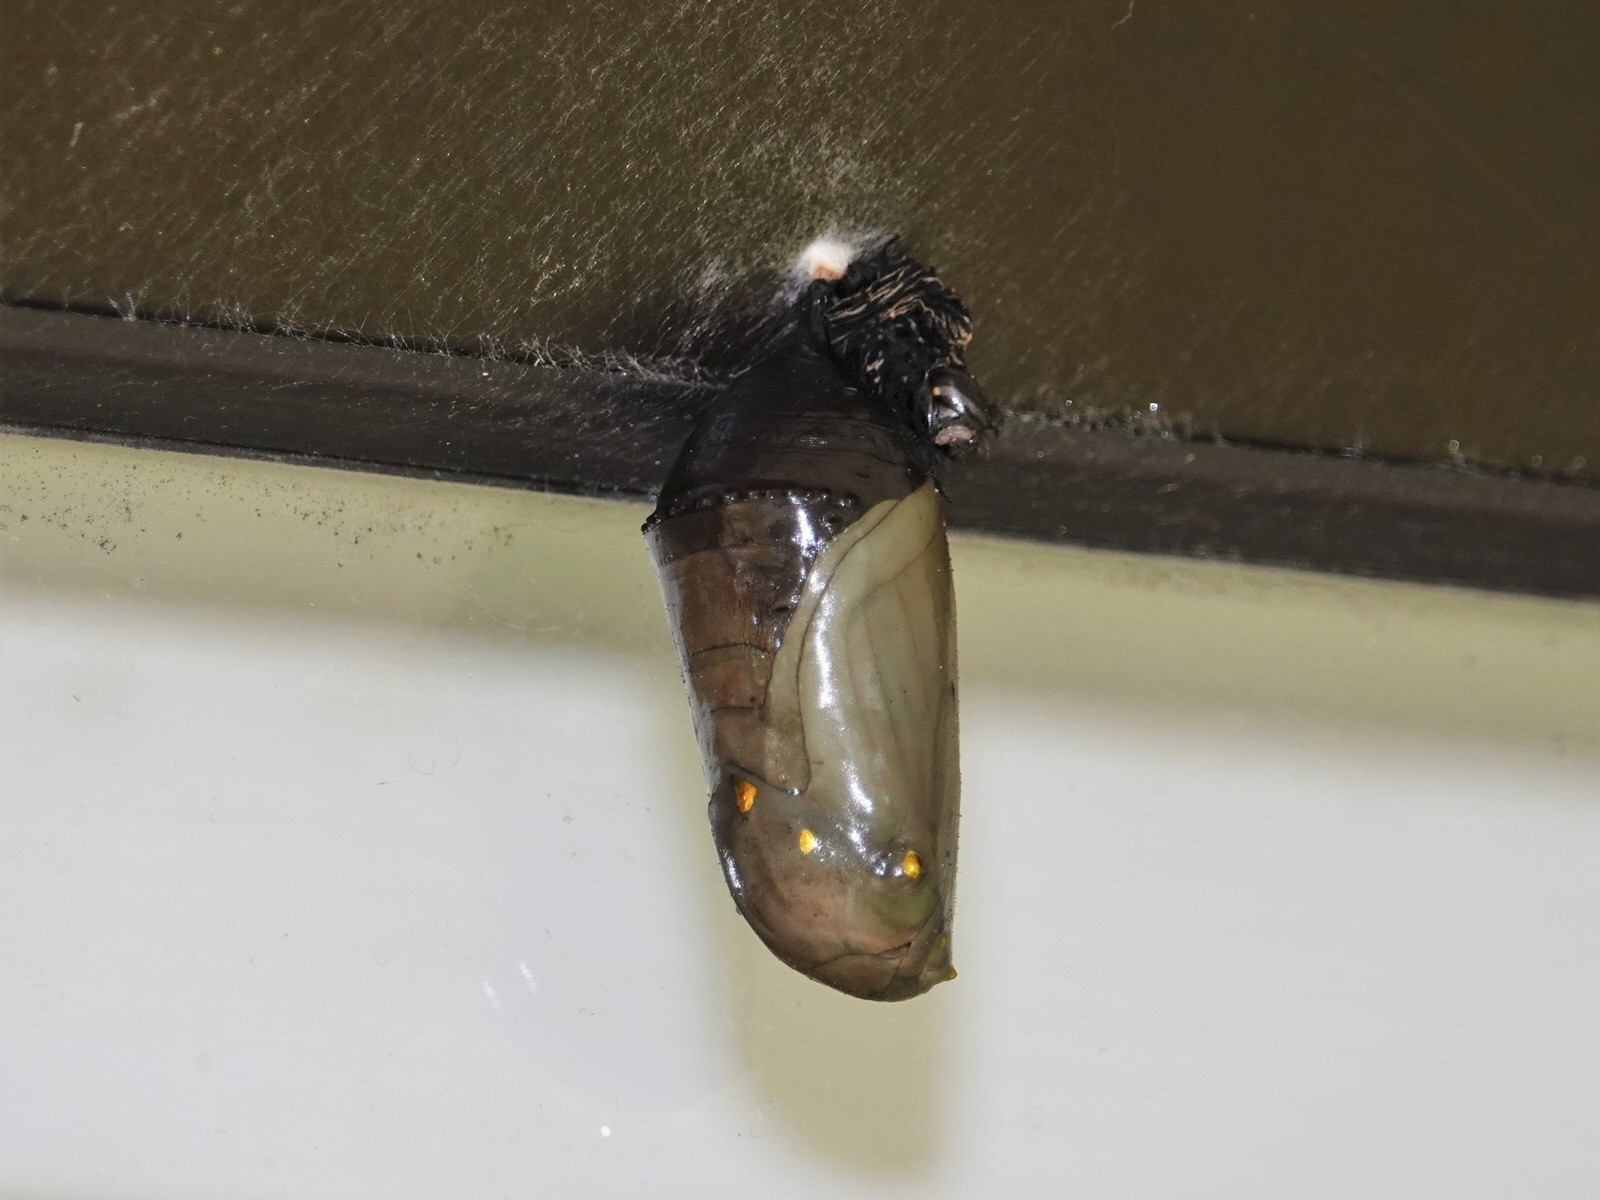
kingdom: Animalia
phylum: Arthropoda
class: Insecta
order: Lepidoptera
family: Nymphalidae
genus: Danaus
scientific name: Danaus plexippus
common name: Monarch
